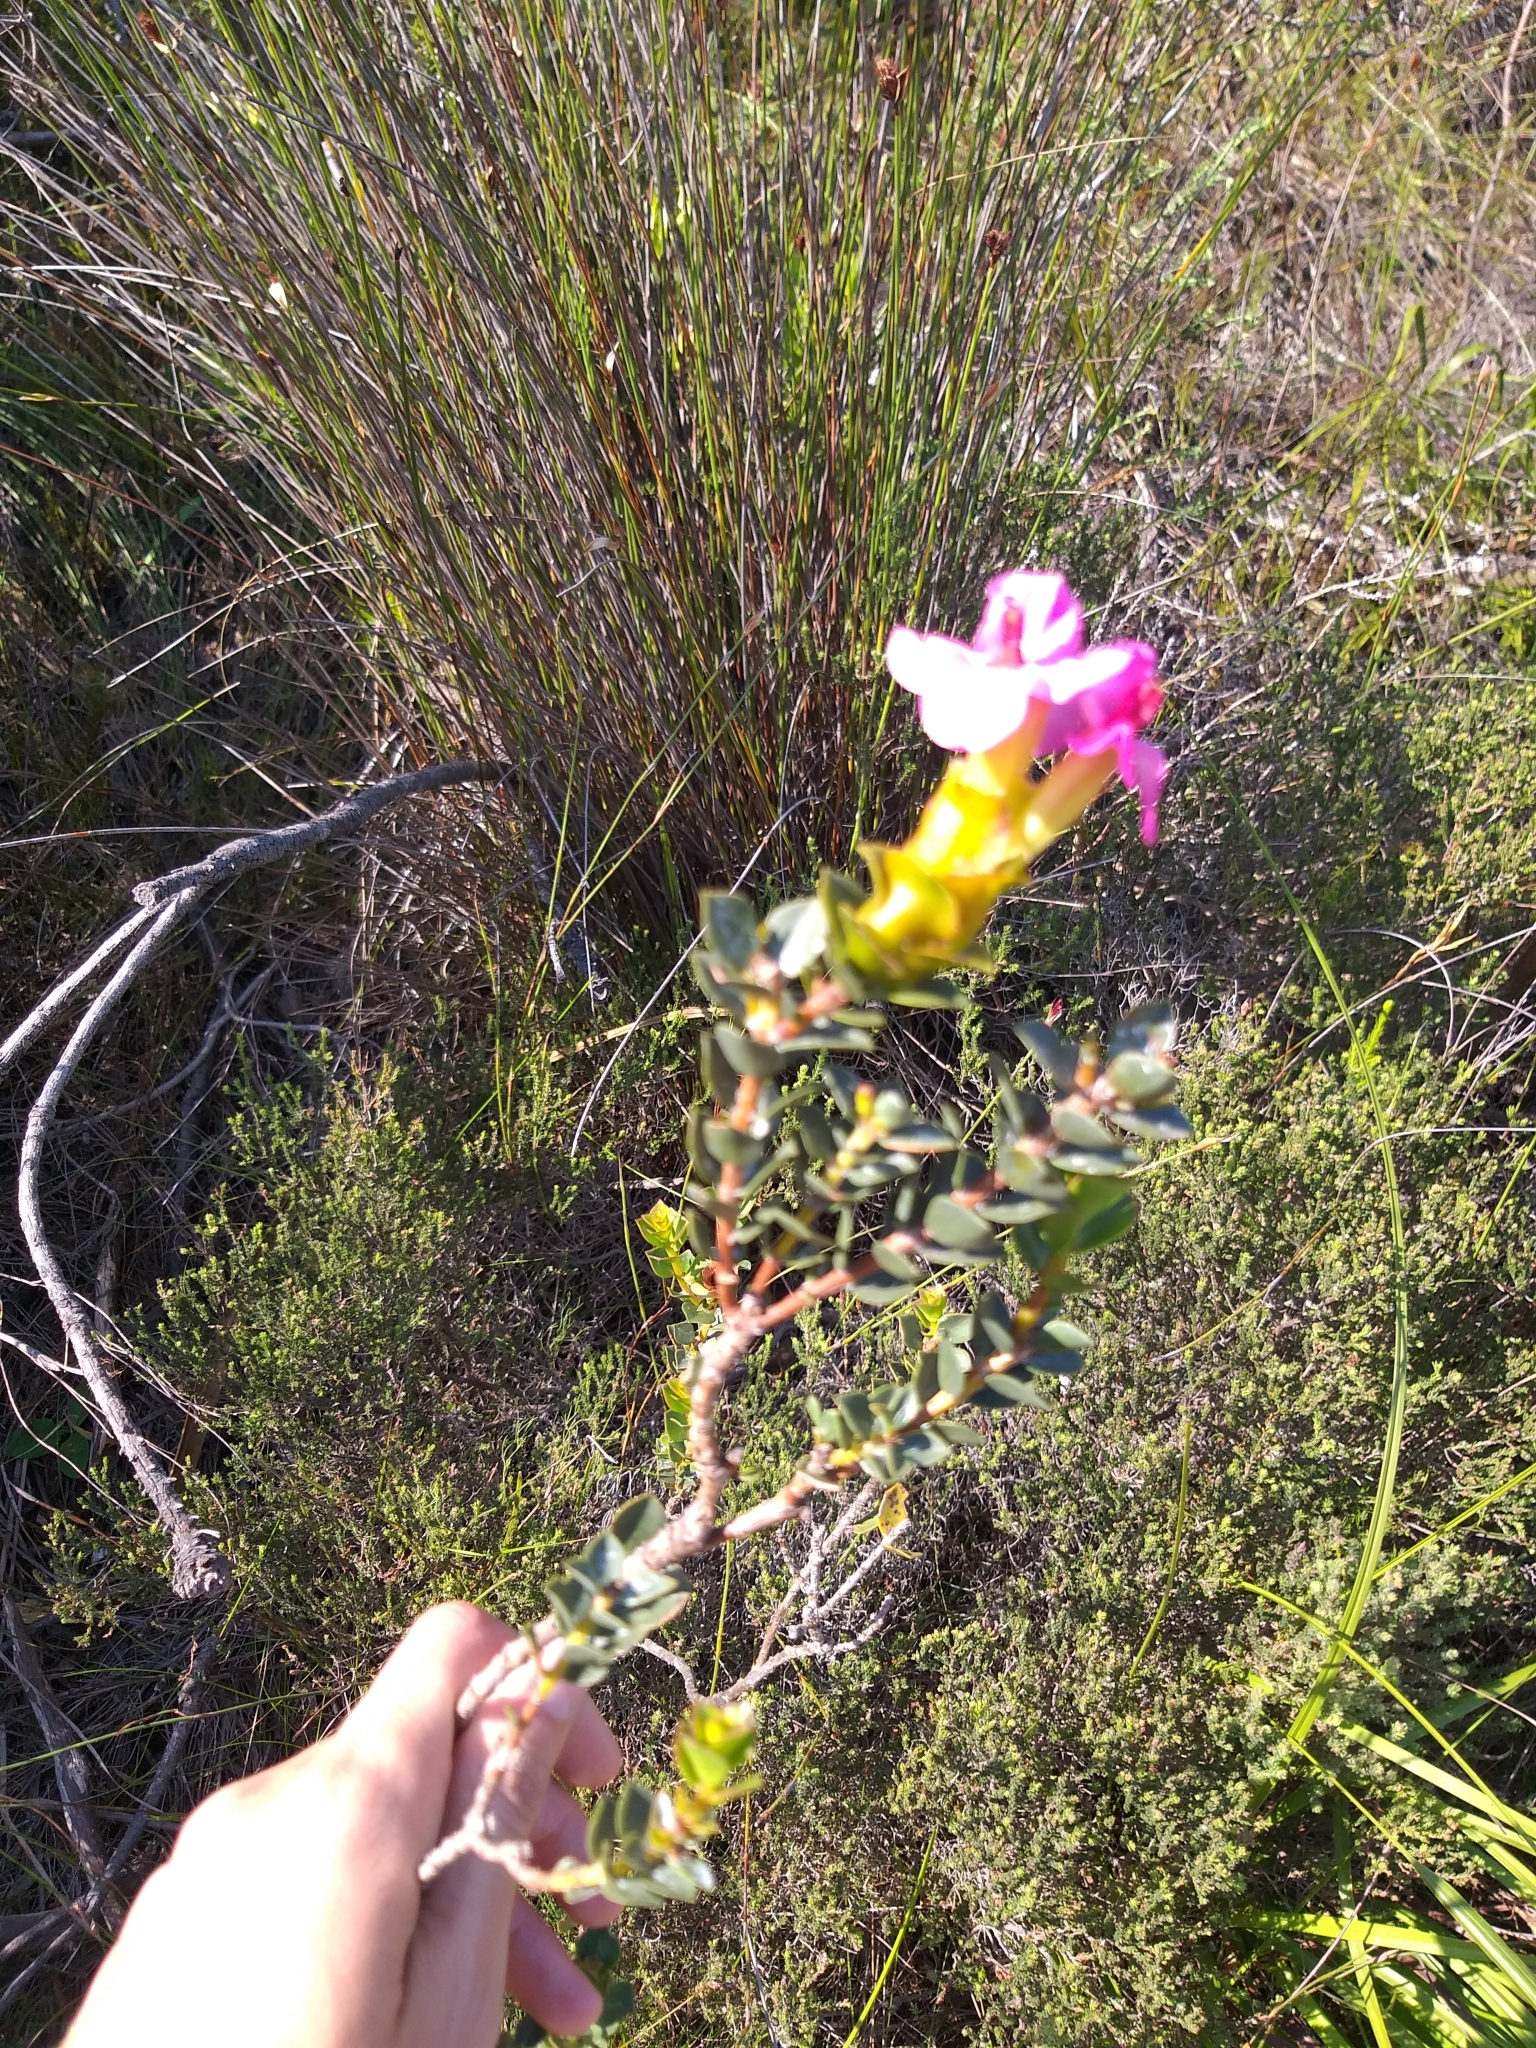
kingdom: Plantae
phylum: Tracheophyta
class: Magnoliopsida
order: Myrtales
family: Penaeaceae
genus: Saltera
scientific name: Saltera sarcocolla
